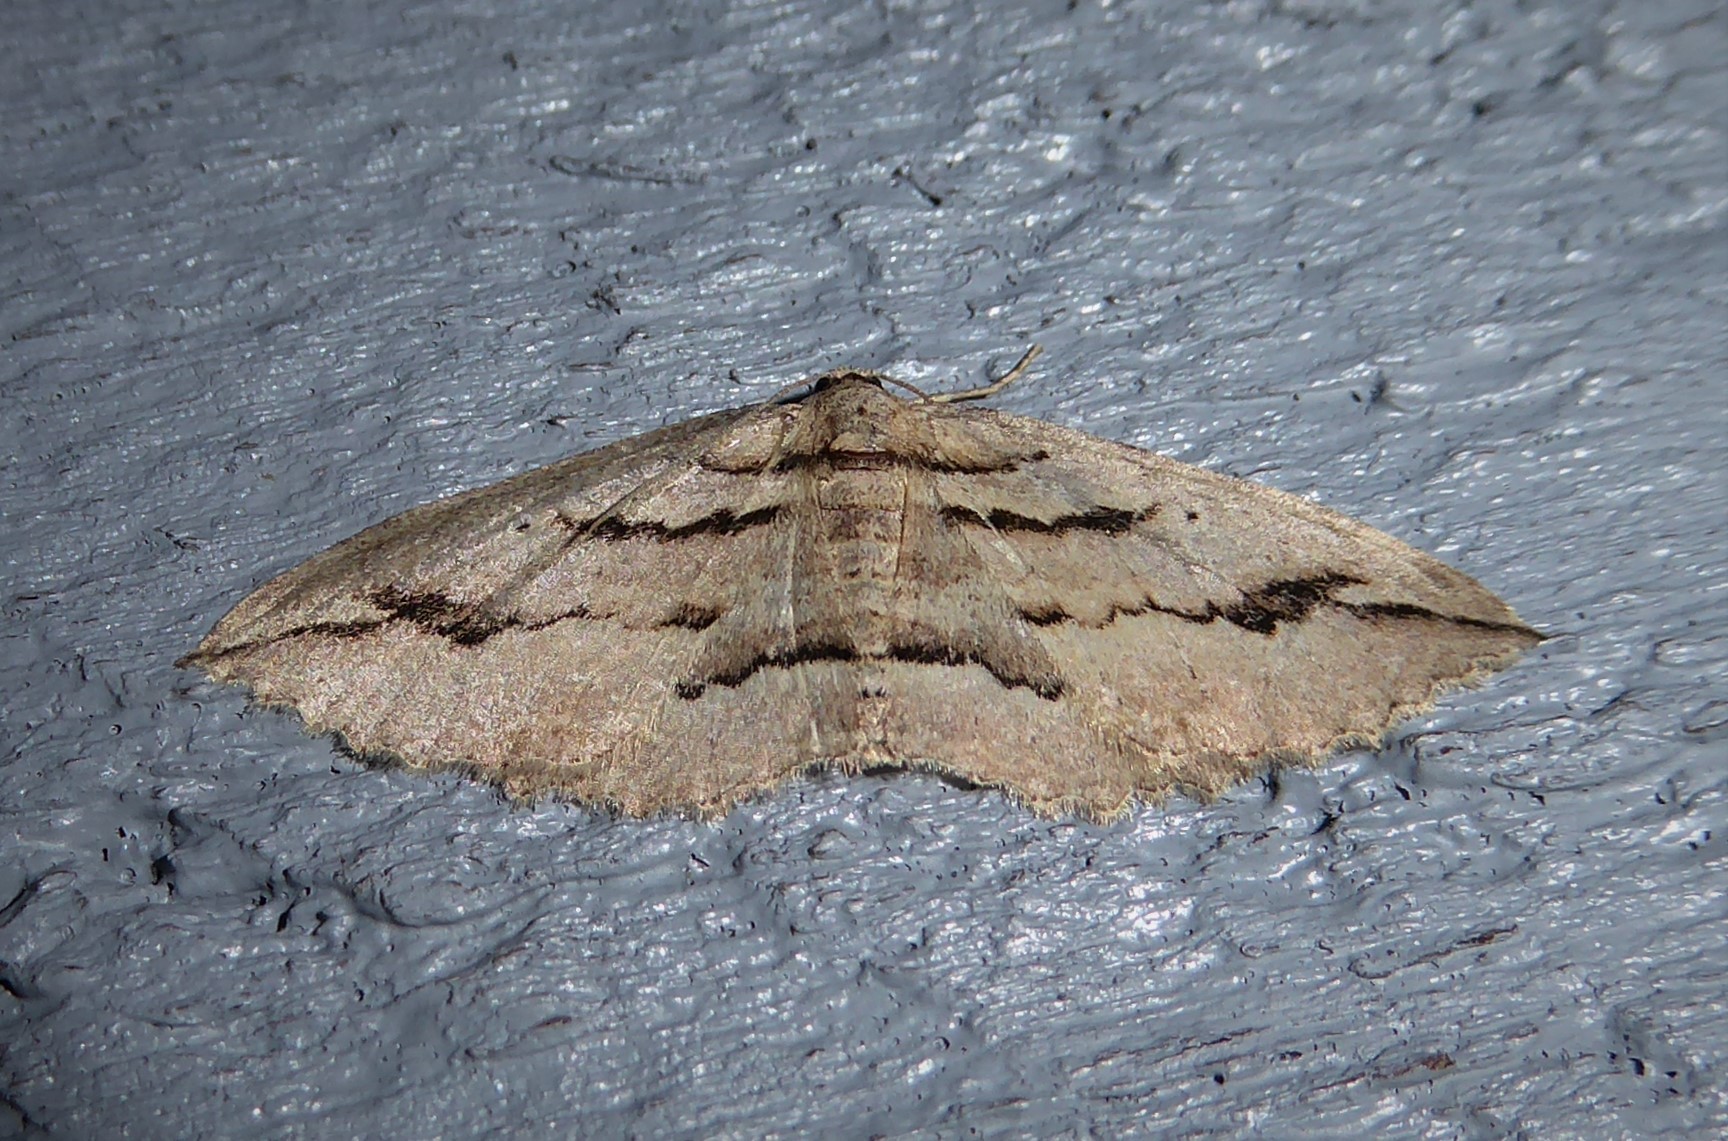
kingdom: Animalia
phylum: Arthropoda
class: Insecta
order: Lepidoptera
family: Geometridae
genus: Austrocidaria
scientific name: Austrocidaria gobiata
